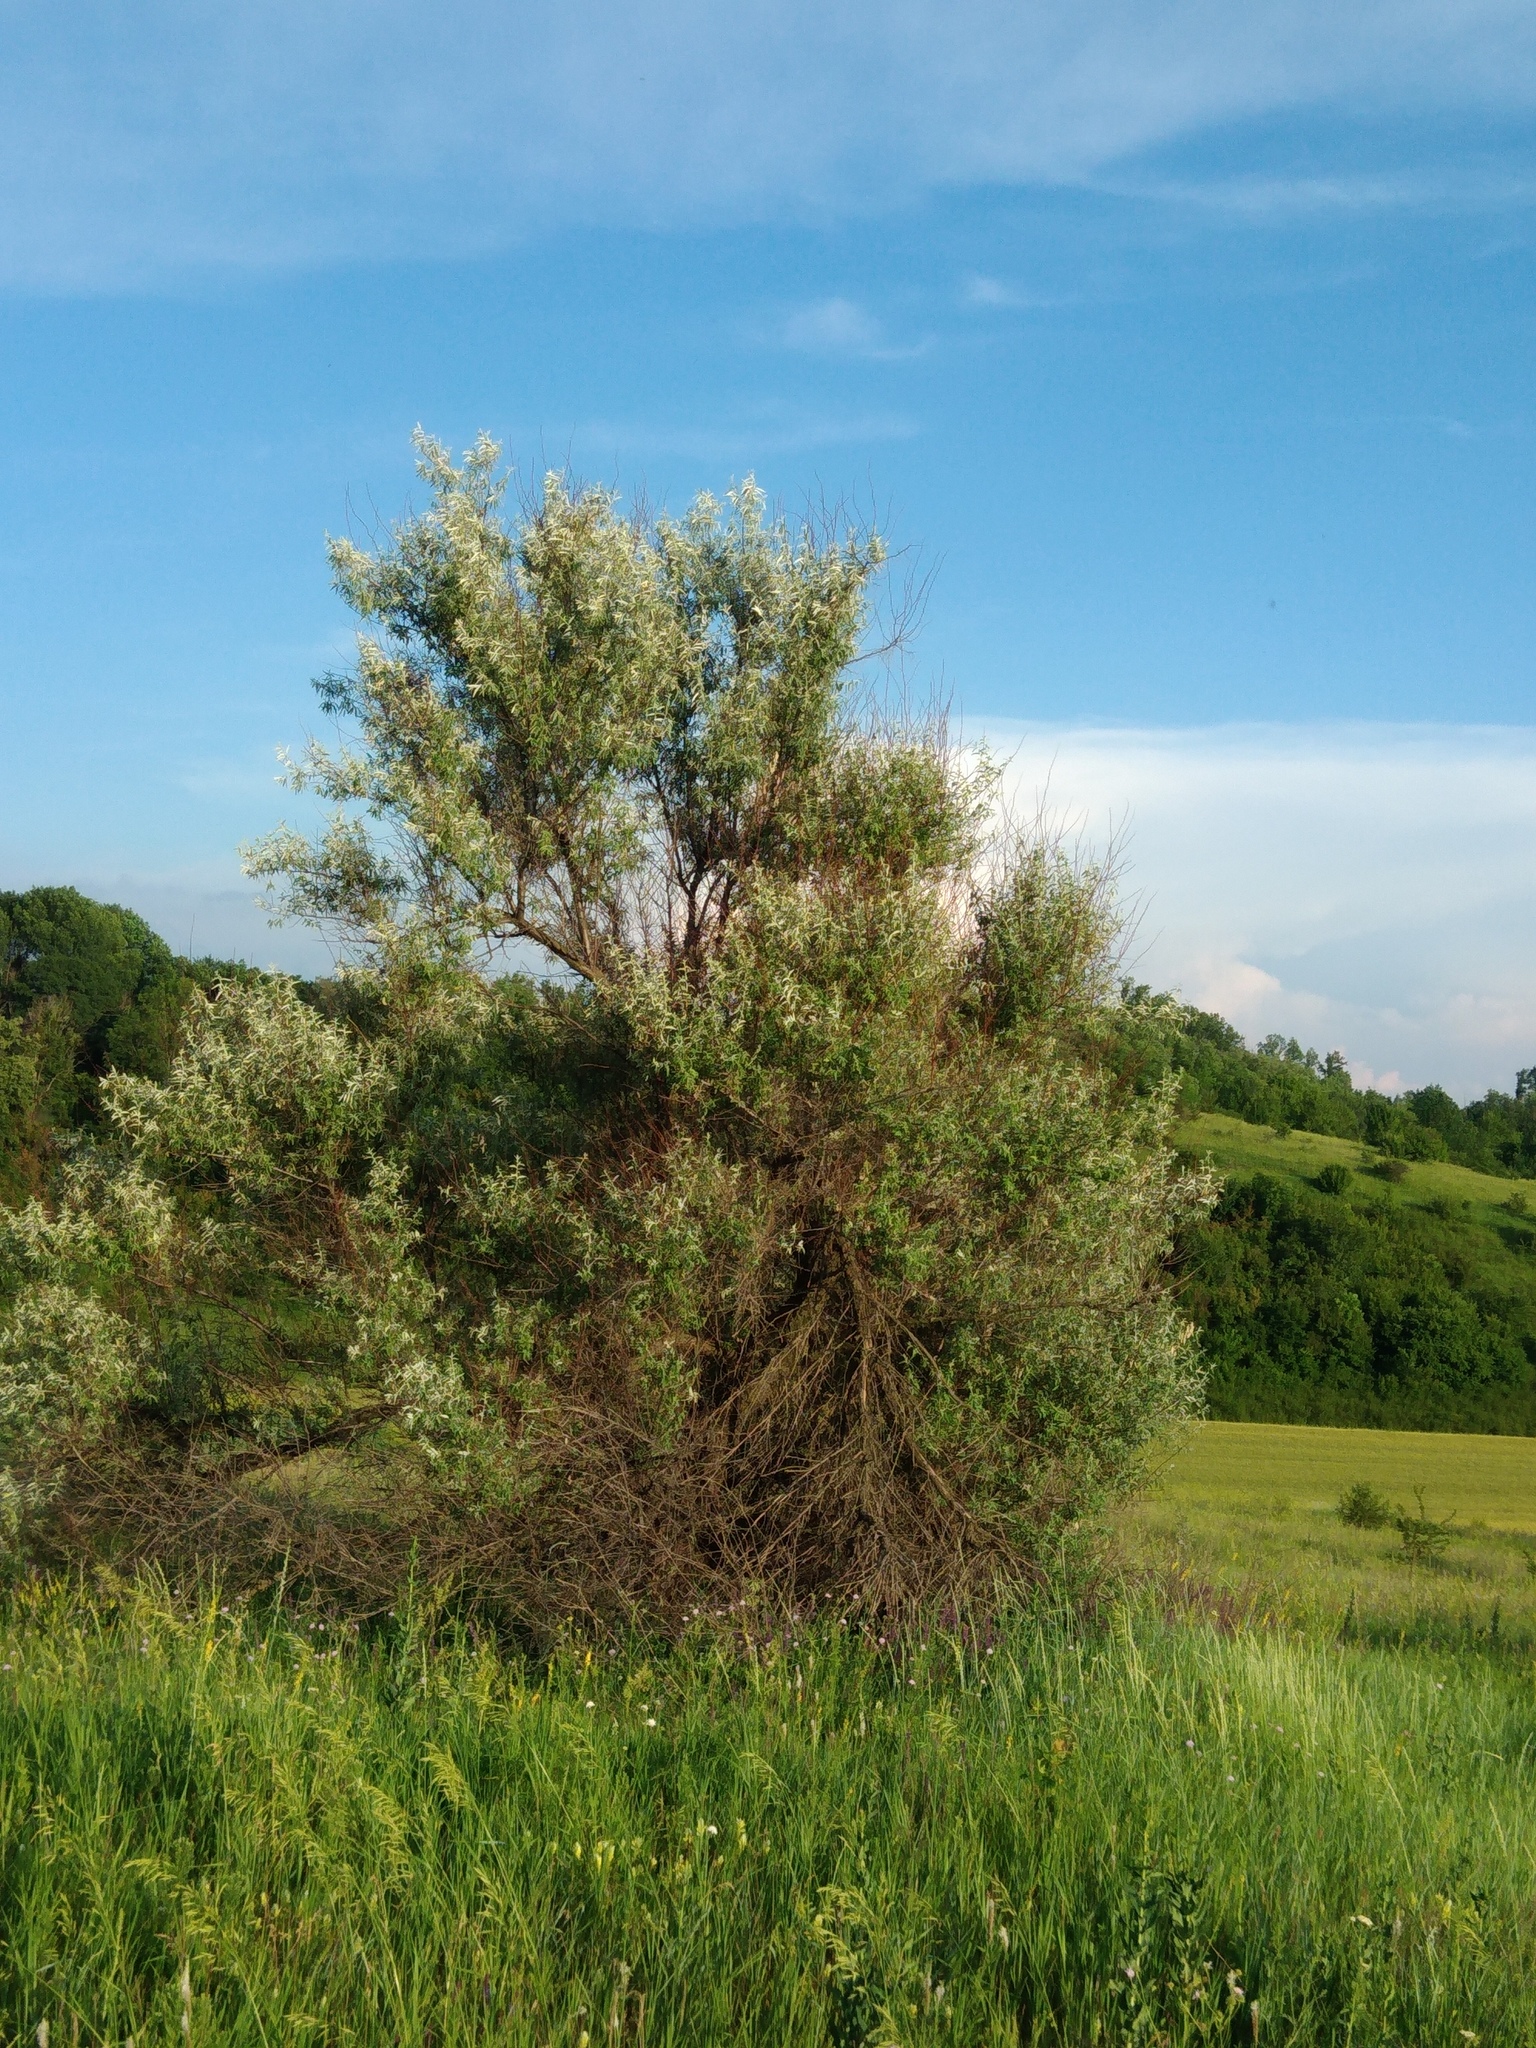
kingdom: Plantae
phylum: Tracheophyta
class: Magnoliopsida
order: Rosales
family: Elaeagnaceae
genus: Elaeagnus
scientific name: Elaeagnus angustifolia
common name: Russian olive
